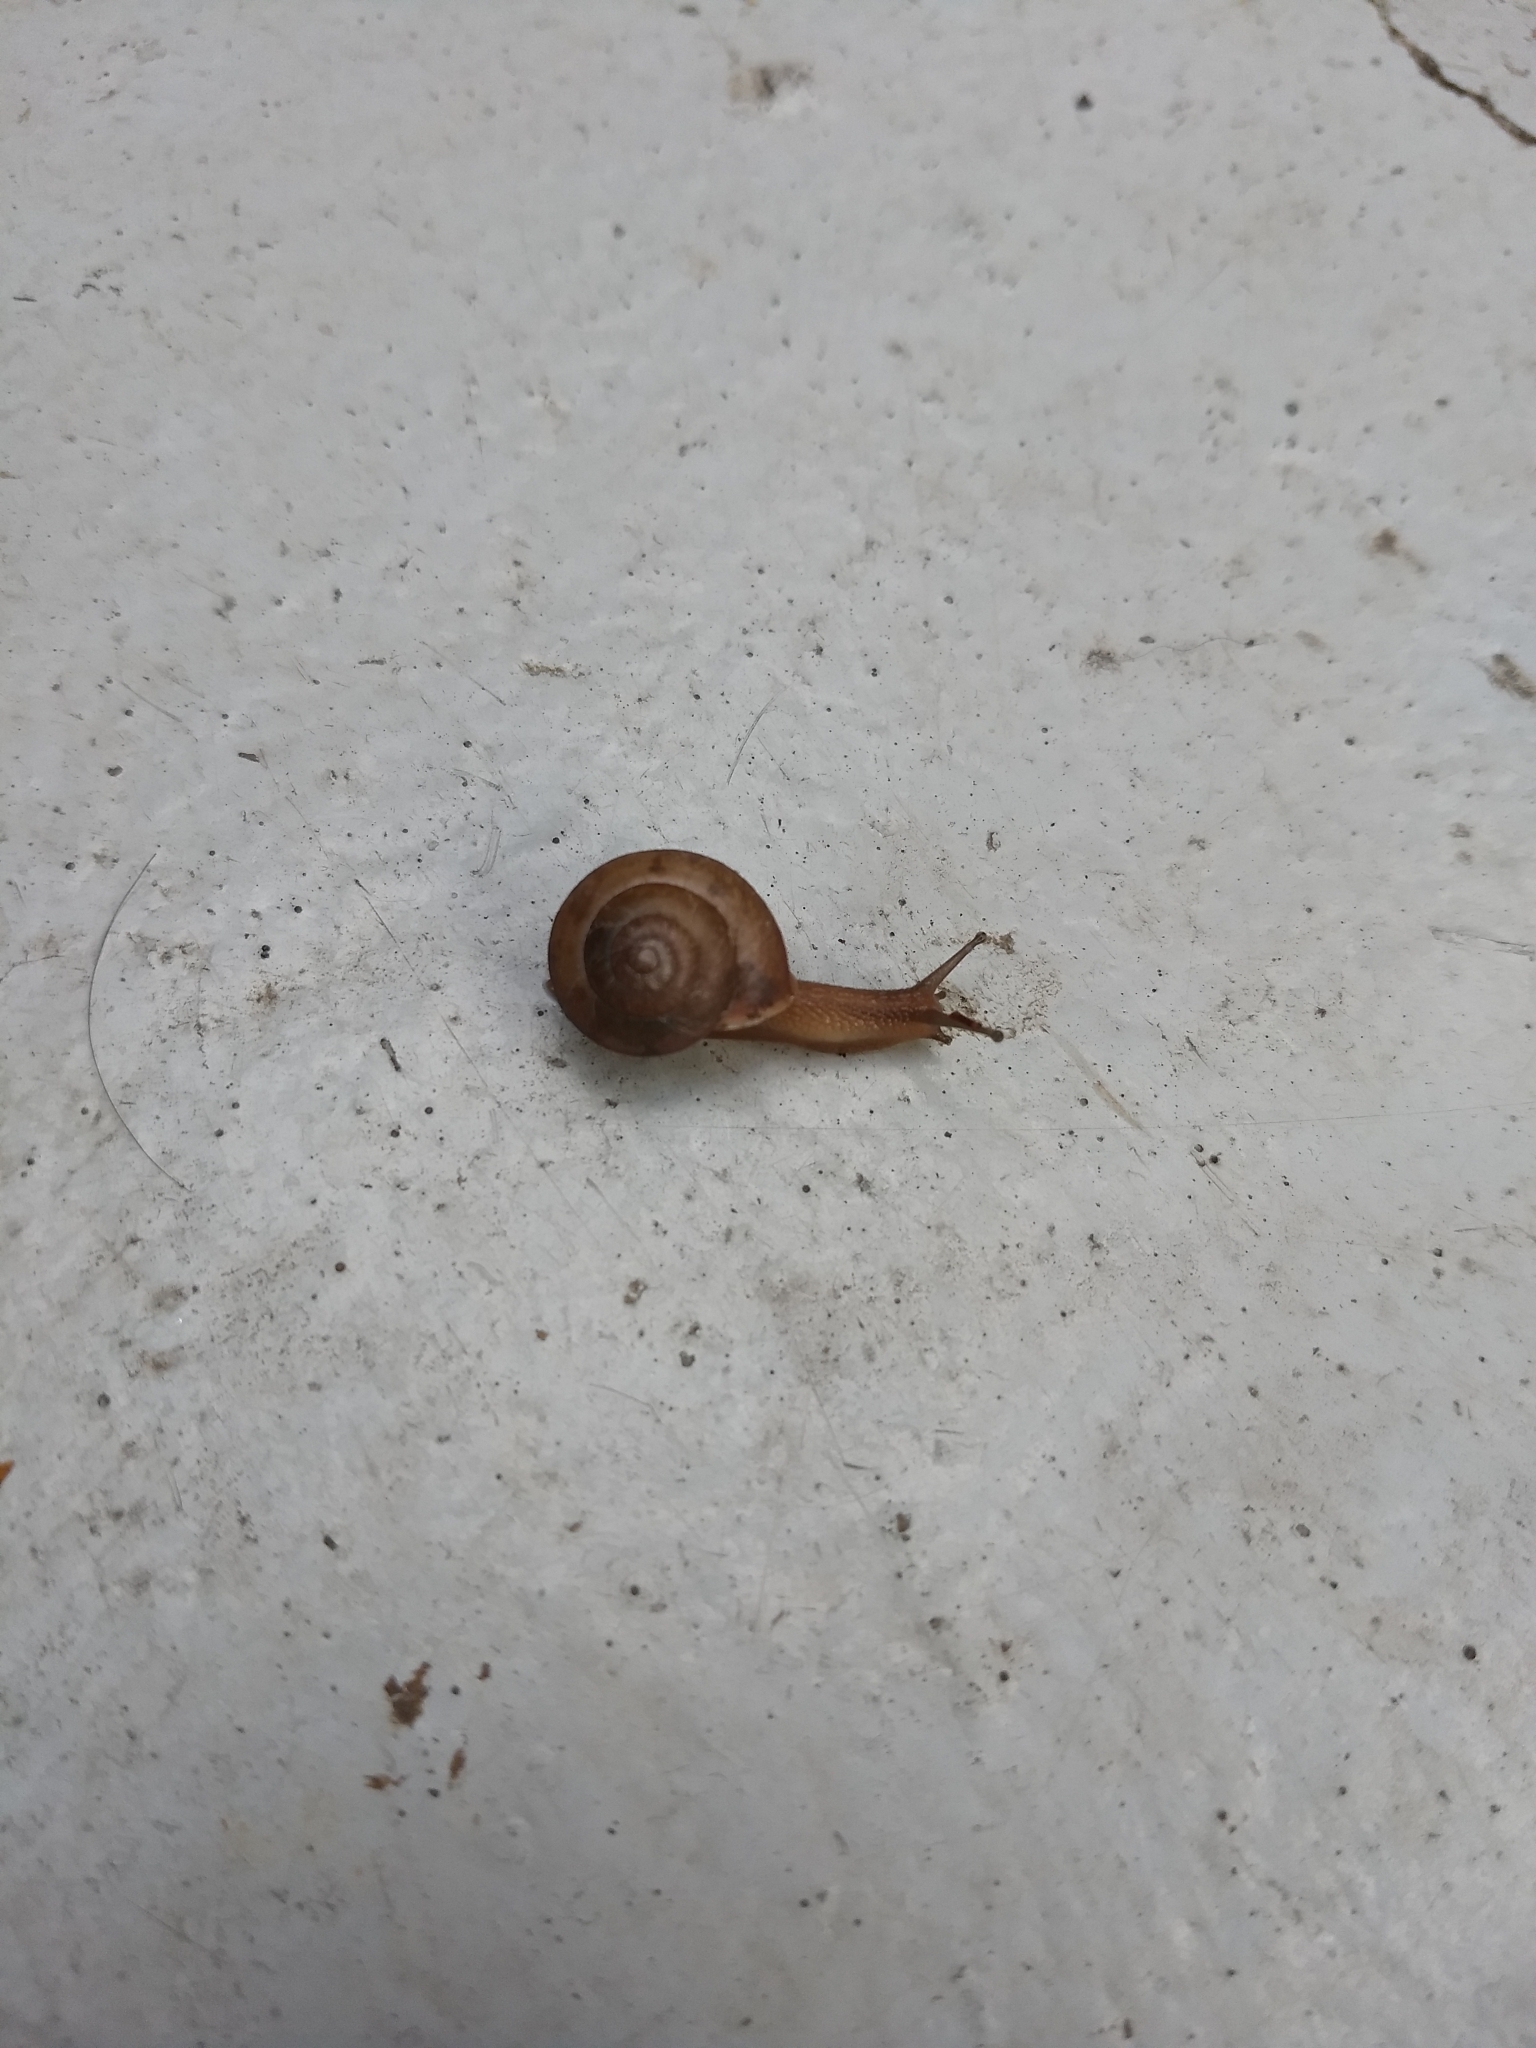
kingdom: Animalia
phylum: Mollusca
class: Gastropoda
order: Stylommatophora
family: Camaenidae
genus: Bradybaena
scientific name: Bradybaena similaris
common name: Asian trampsnail
